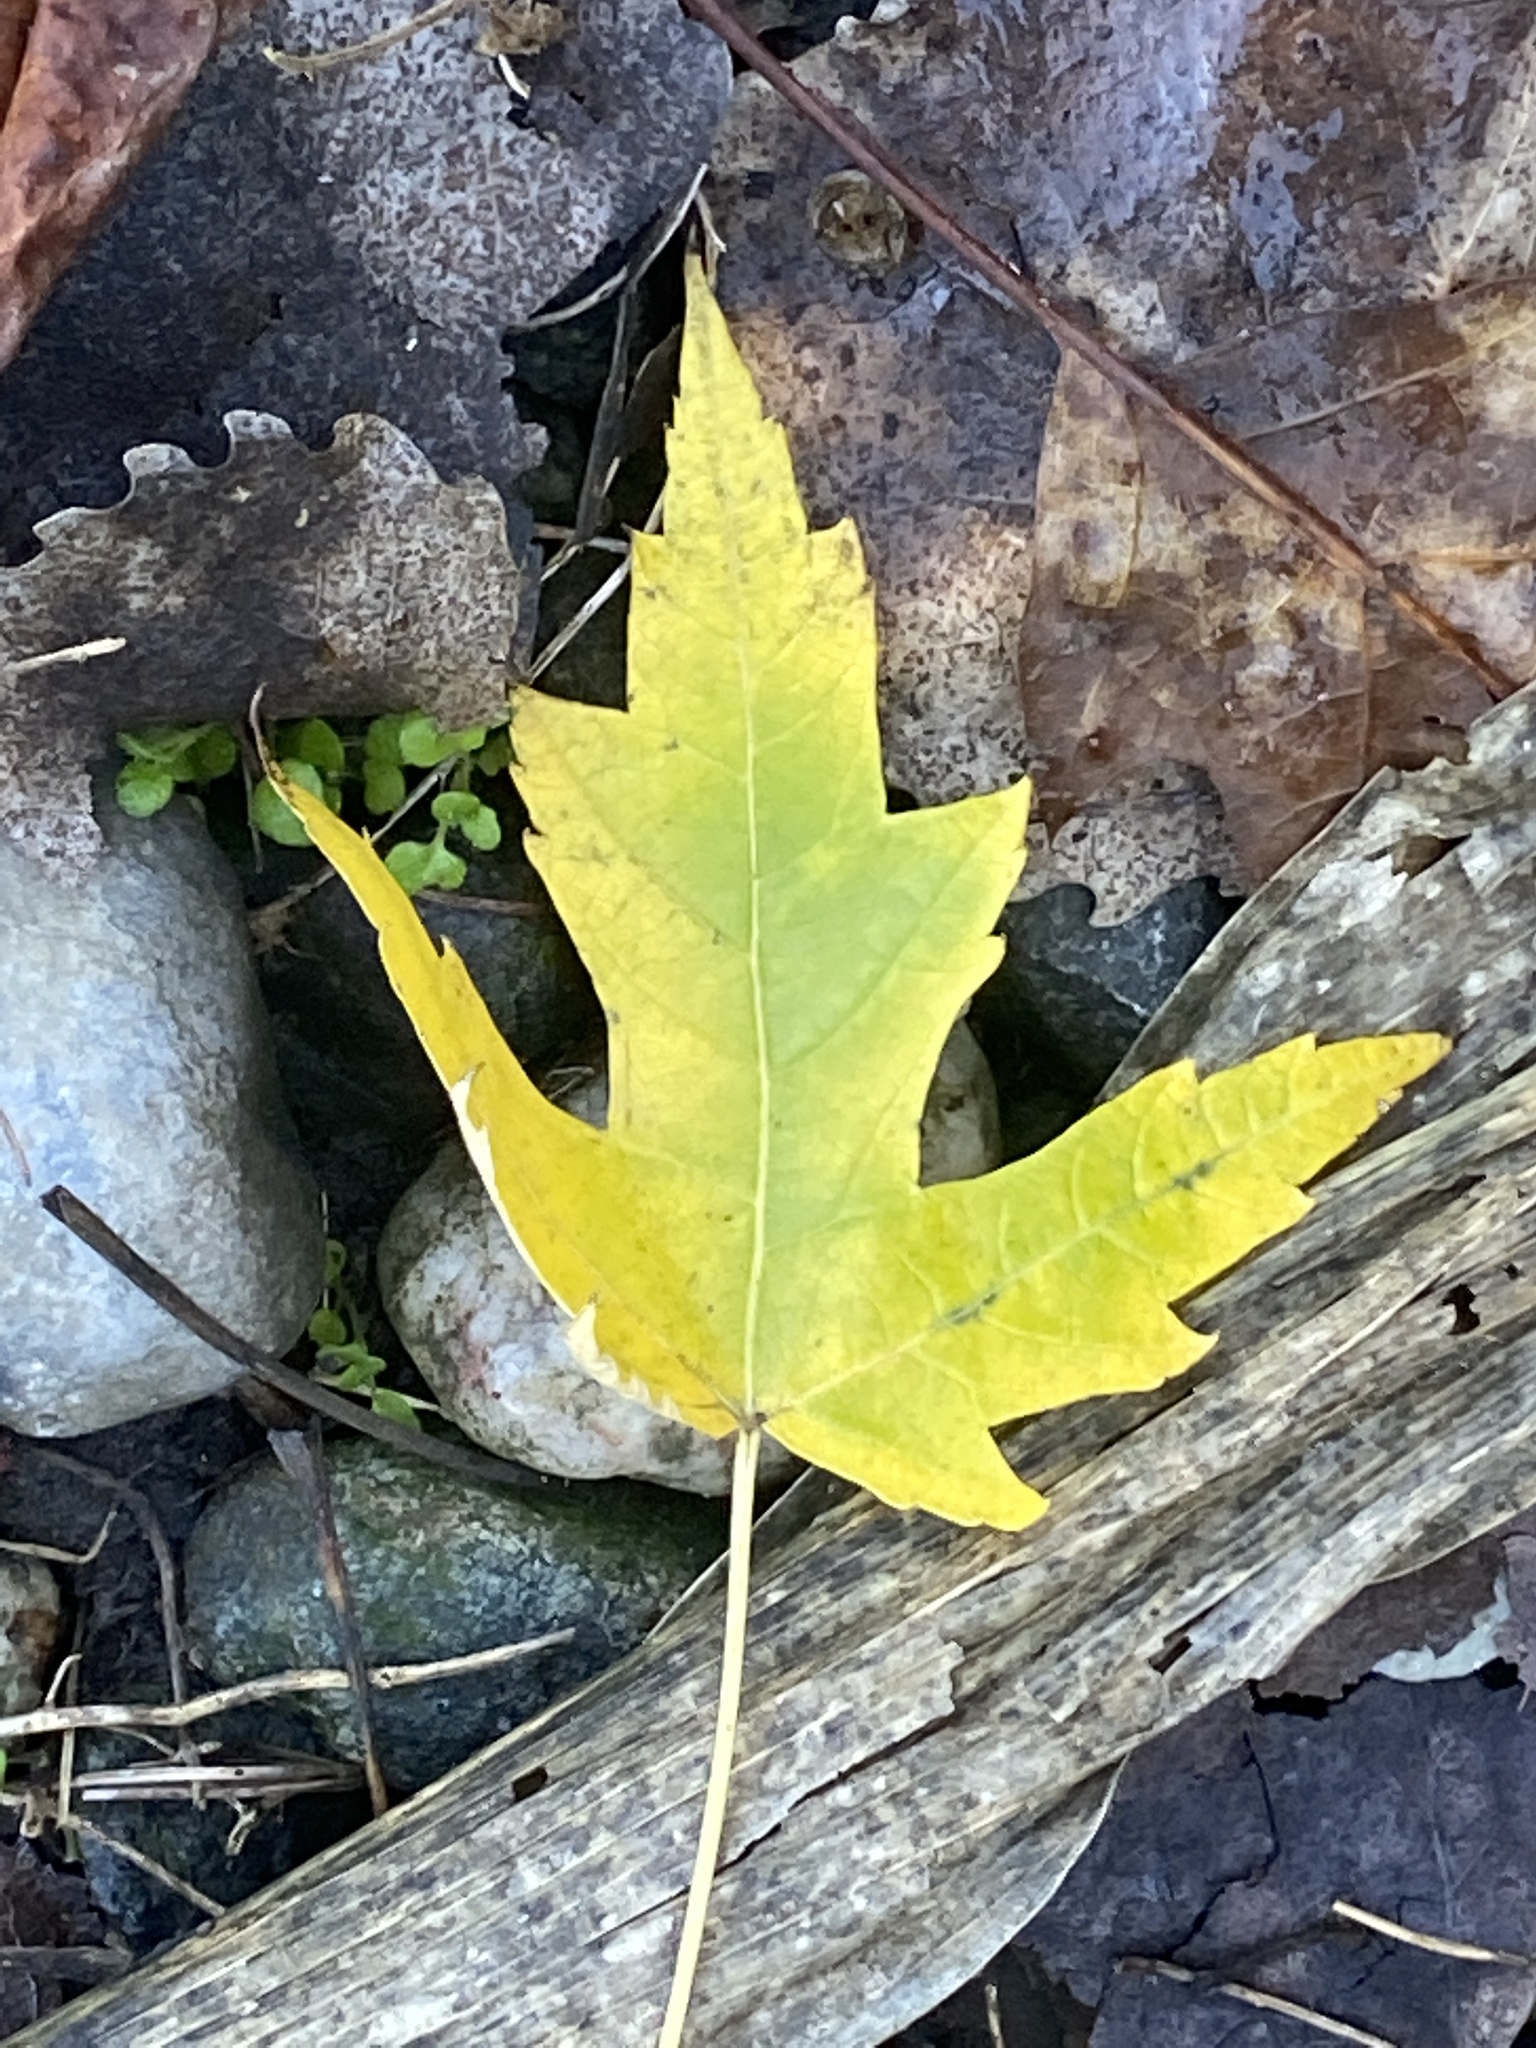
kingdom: Plantae
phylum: Tracheophyta
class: Magnoliopsida
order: Sapindales
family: Sapindaceae
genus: Acer
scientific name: Acer saccharinum
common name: Silver maple
